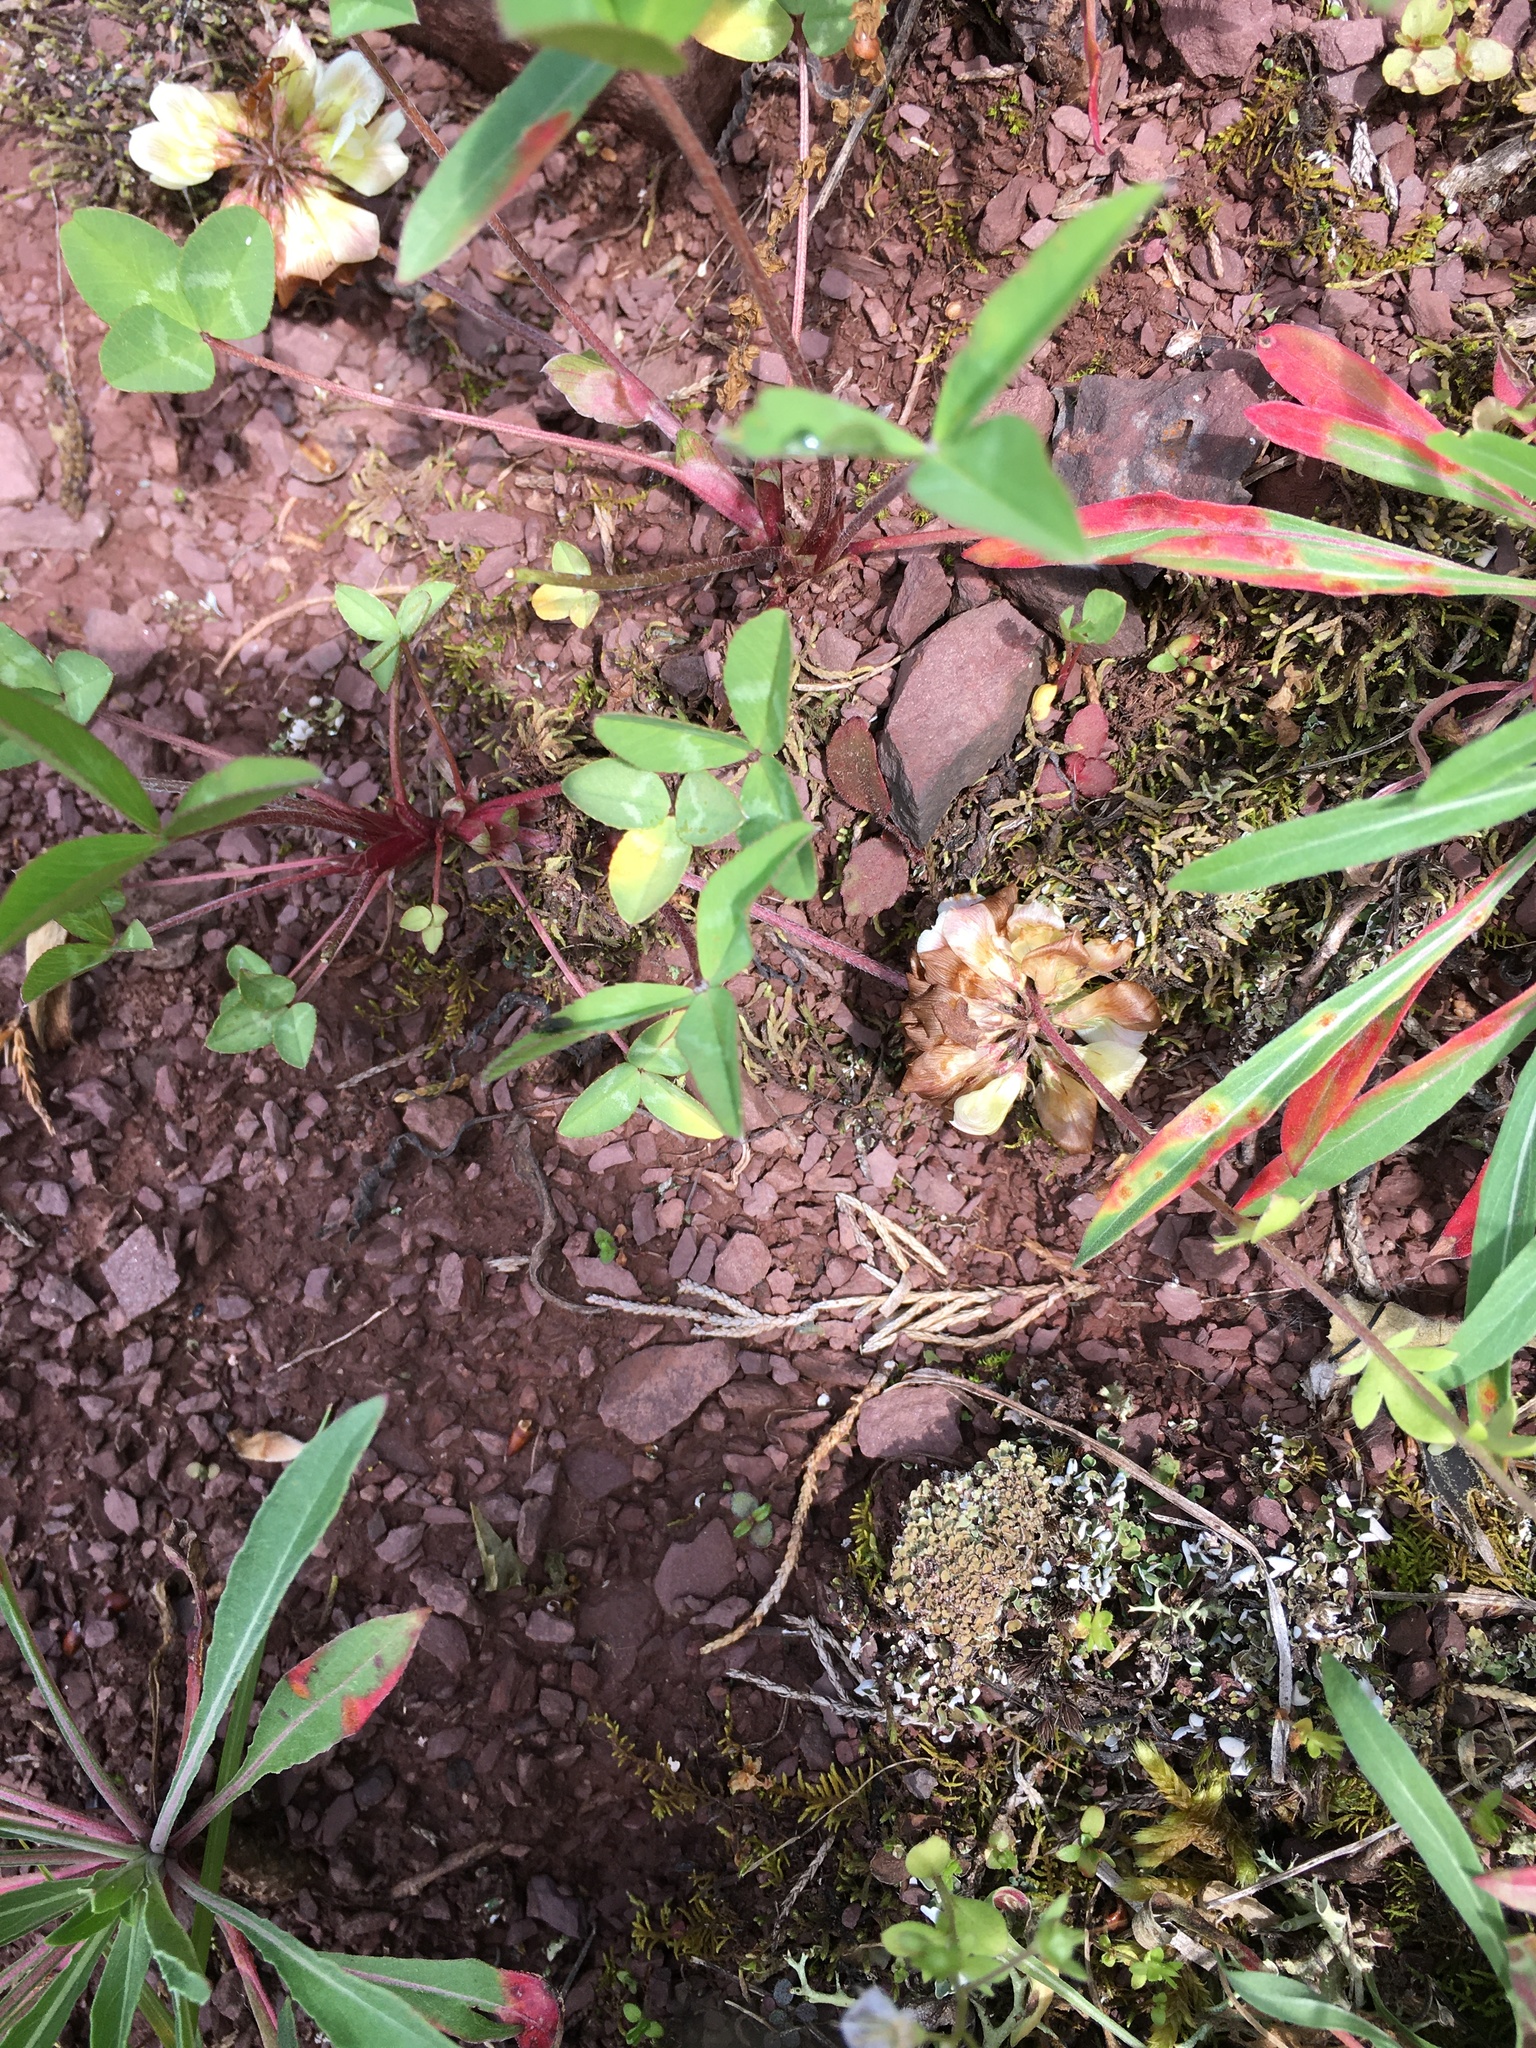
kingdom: Plantae
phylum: Tracheophyta
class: Magnoliopsida
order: Fabales
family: Fabaceae
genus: Trifolium
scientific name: Trifolium virginicum
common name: Kate's mountain clover
